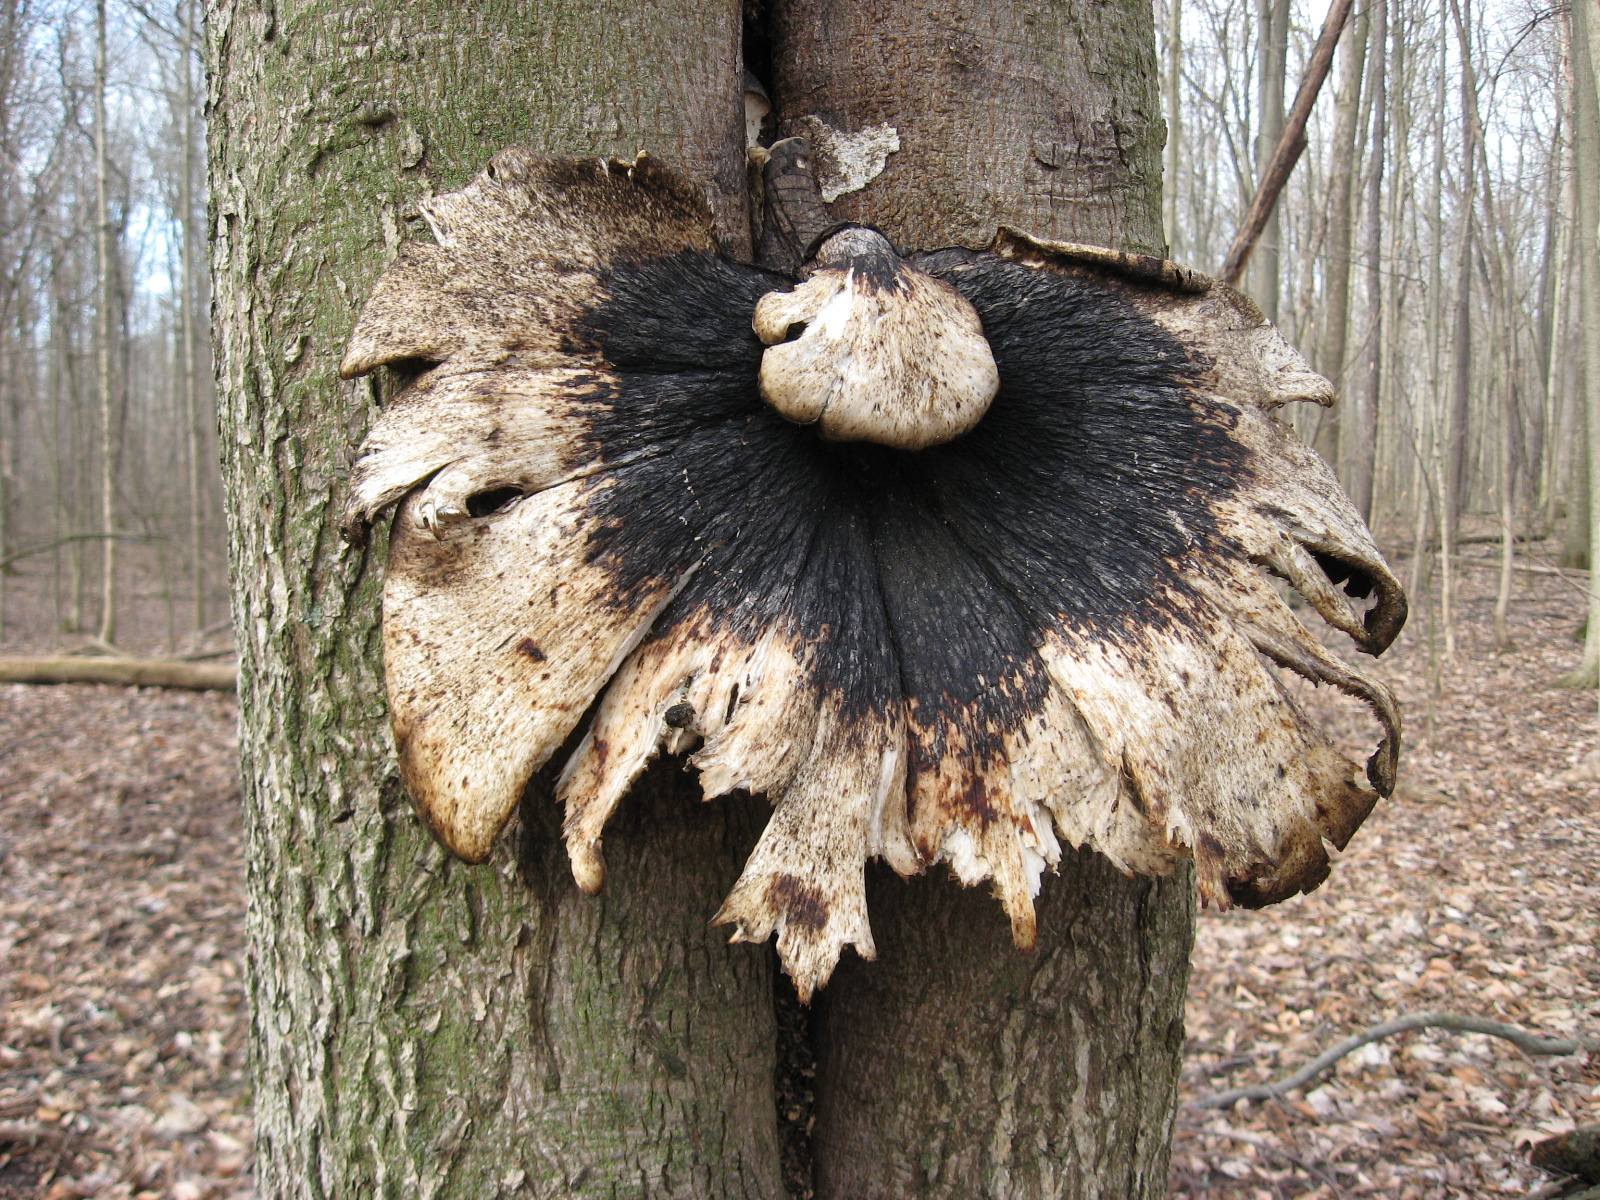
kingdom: Fungi
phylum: Basidiomycota
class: Agaricomycetes
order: Polyporales
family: Polyporaceae
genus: Cerioporus
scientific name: Cerioporus squamosus
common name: Dryad's saddle
